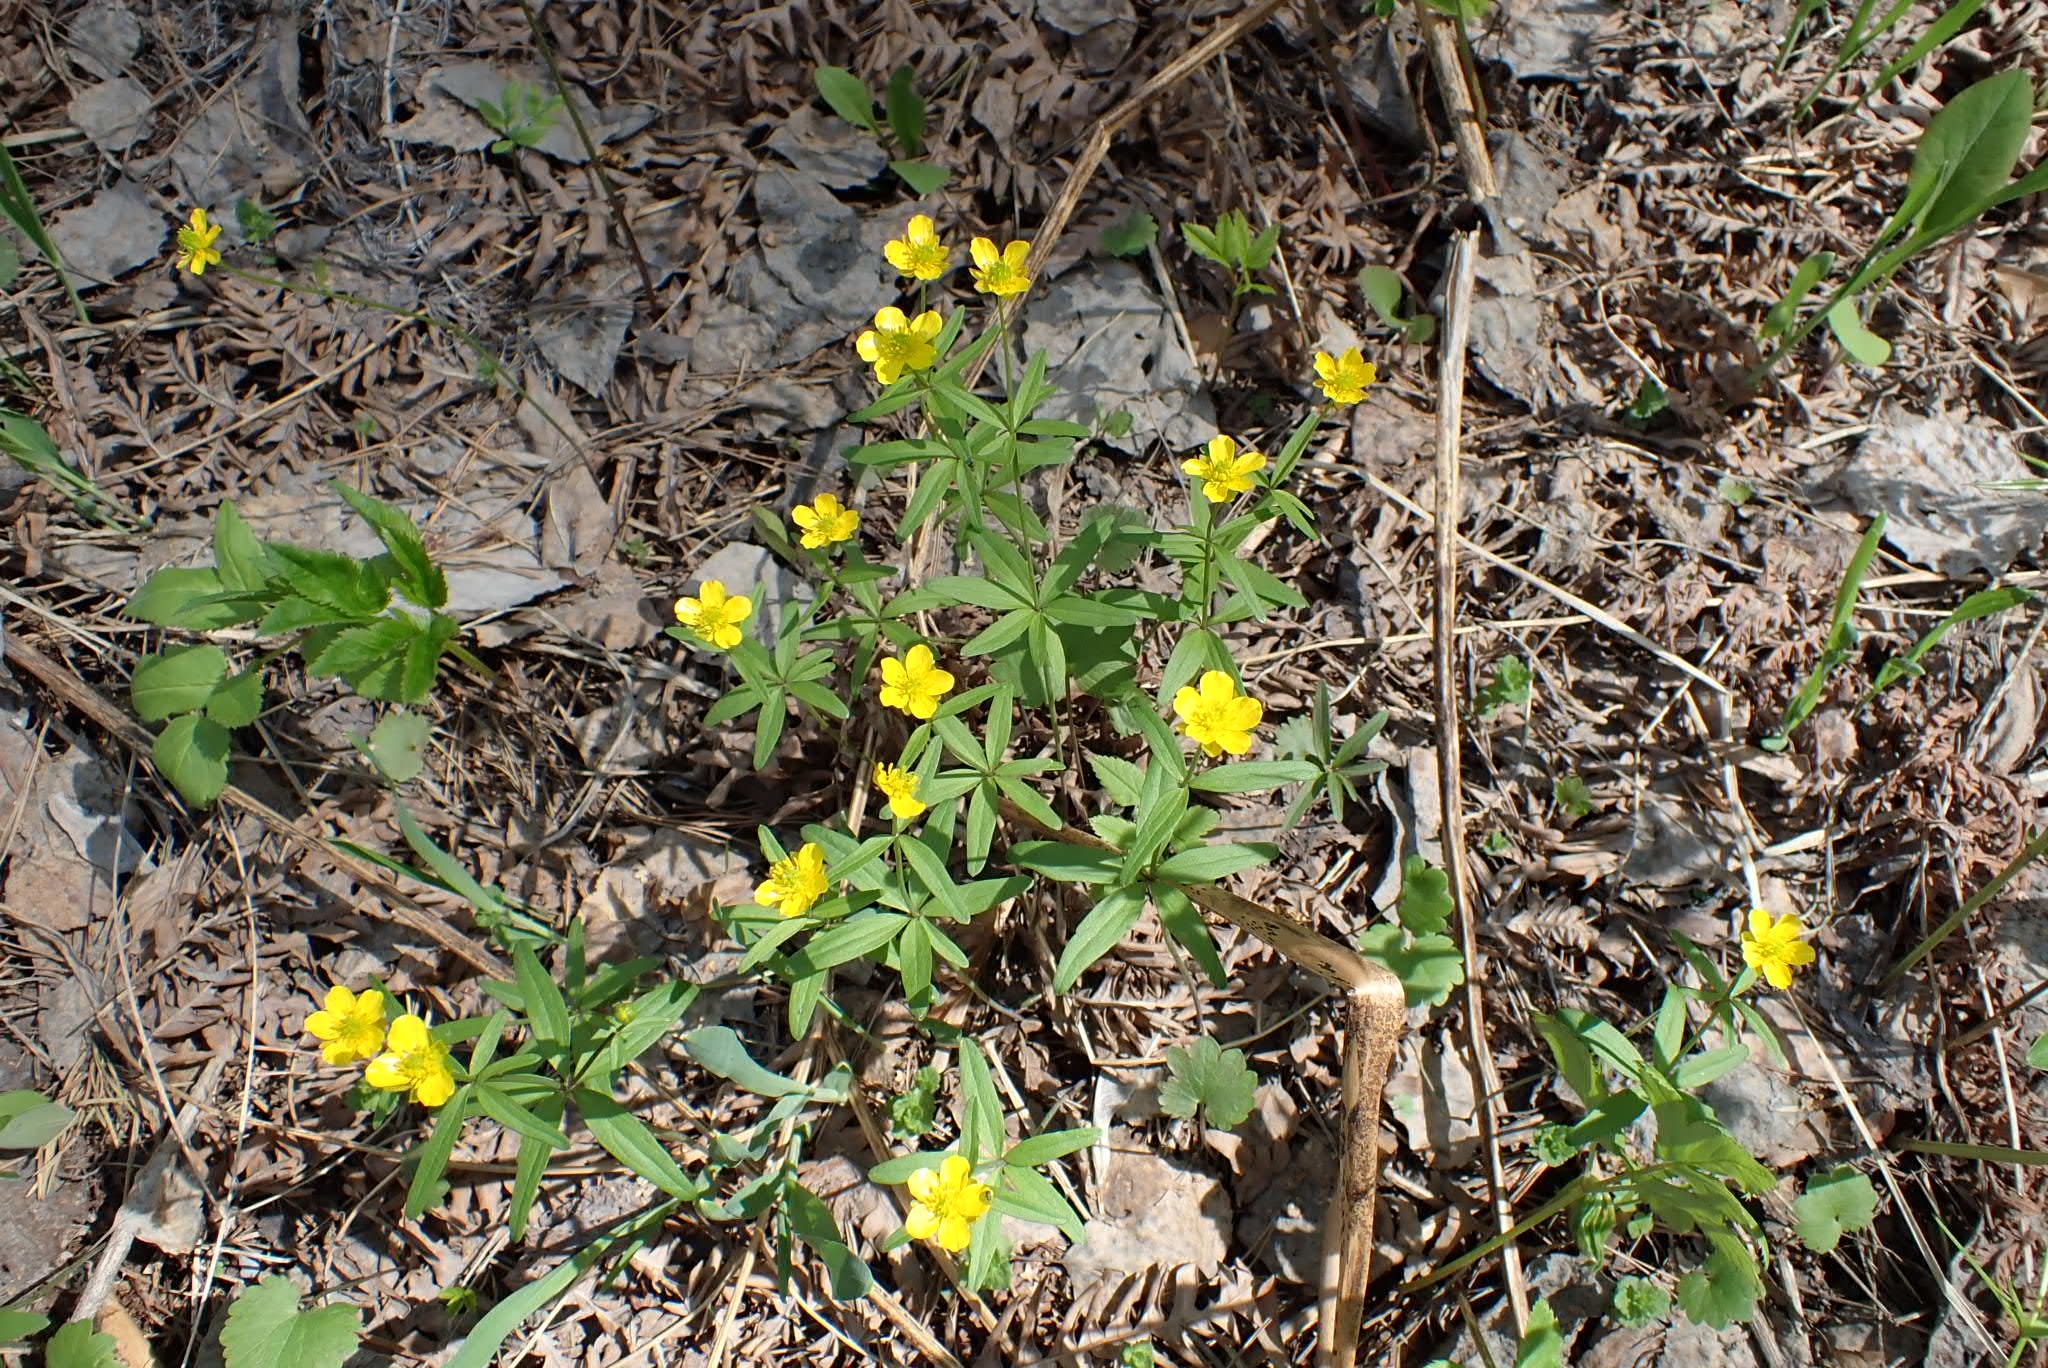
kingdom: Plantae
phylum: Tracheophyta
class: Magnoliopsida
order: Ranunculales
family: Ranunculaceae
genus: Ranunculus
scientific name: Ranunculus monophyllus
